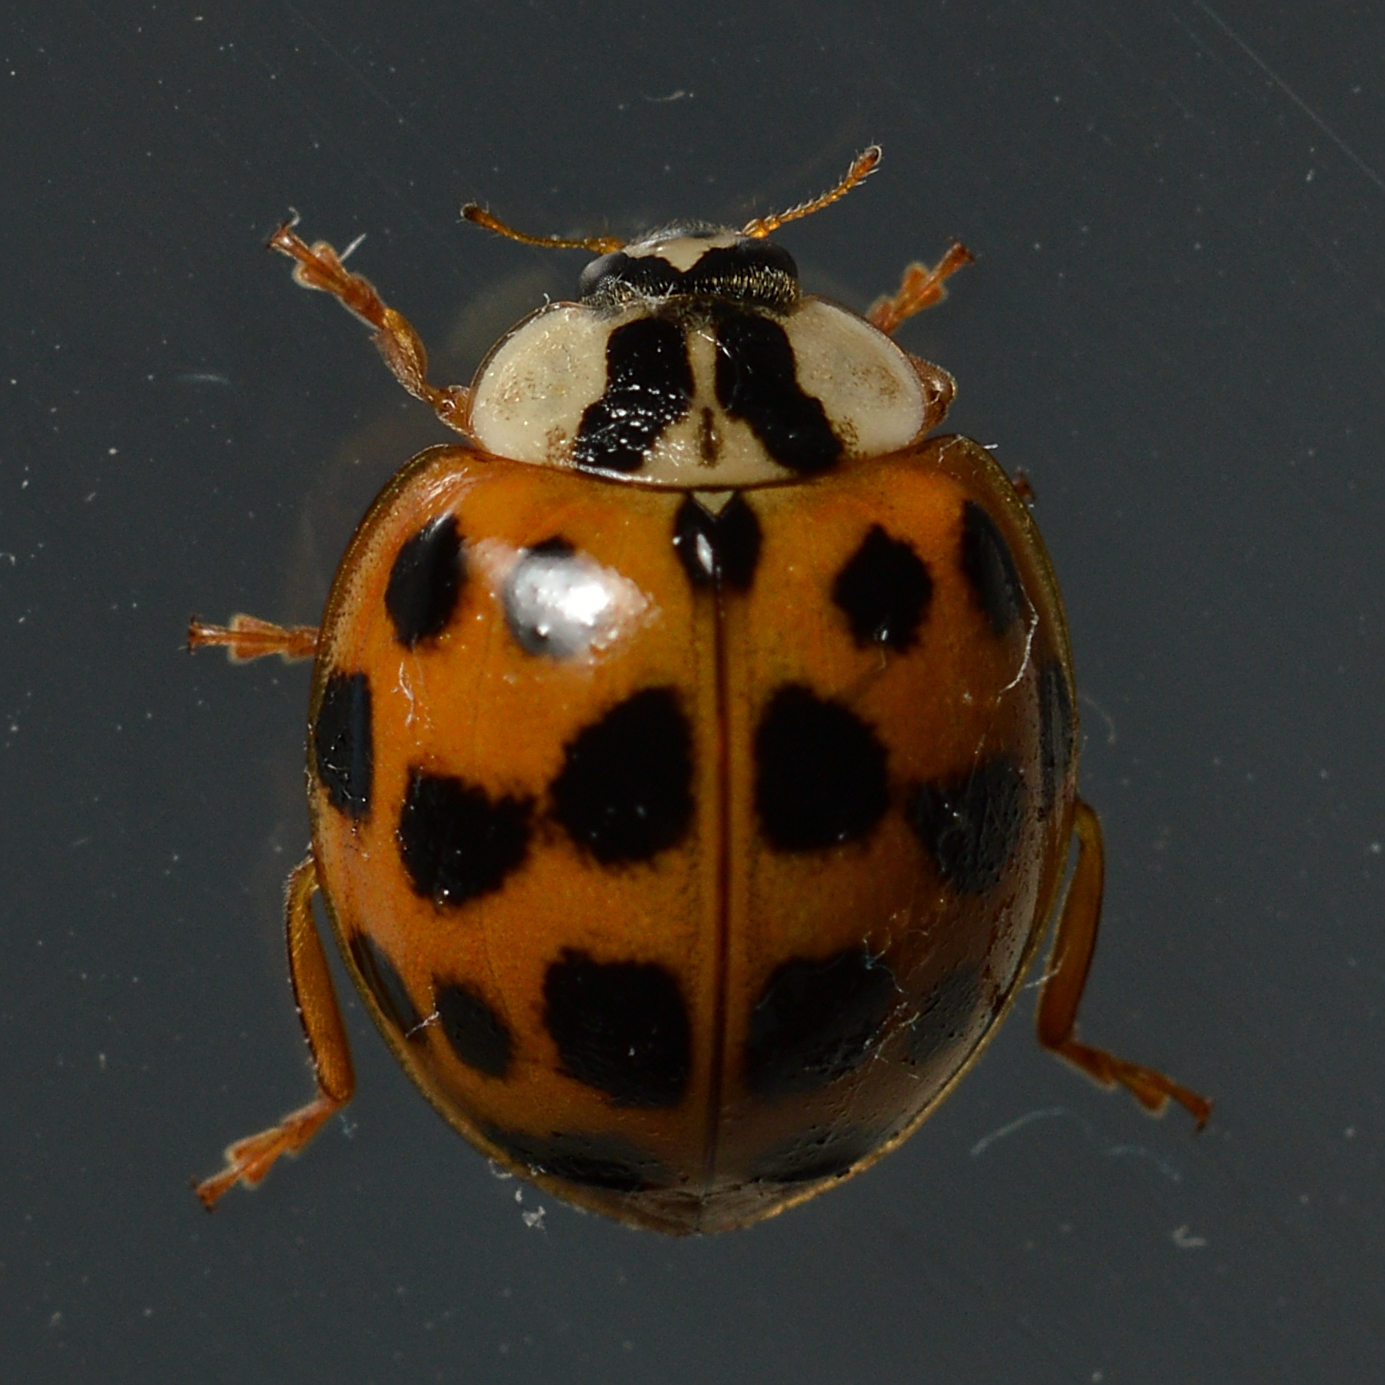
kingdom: Animalia
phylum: Arthropoda
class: Insecta
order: Coleoptera
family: Coccinellidae
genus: Harmonia
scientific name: Harmonia axyridis
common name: Harlequin ladybird
